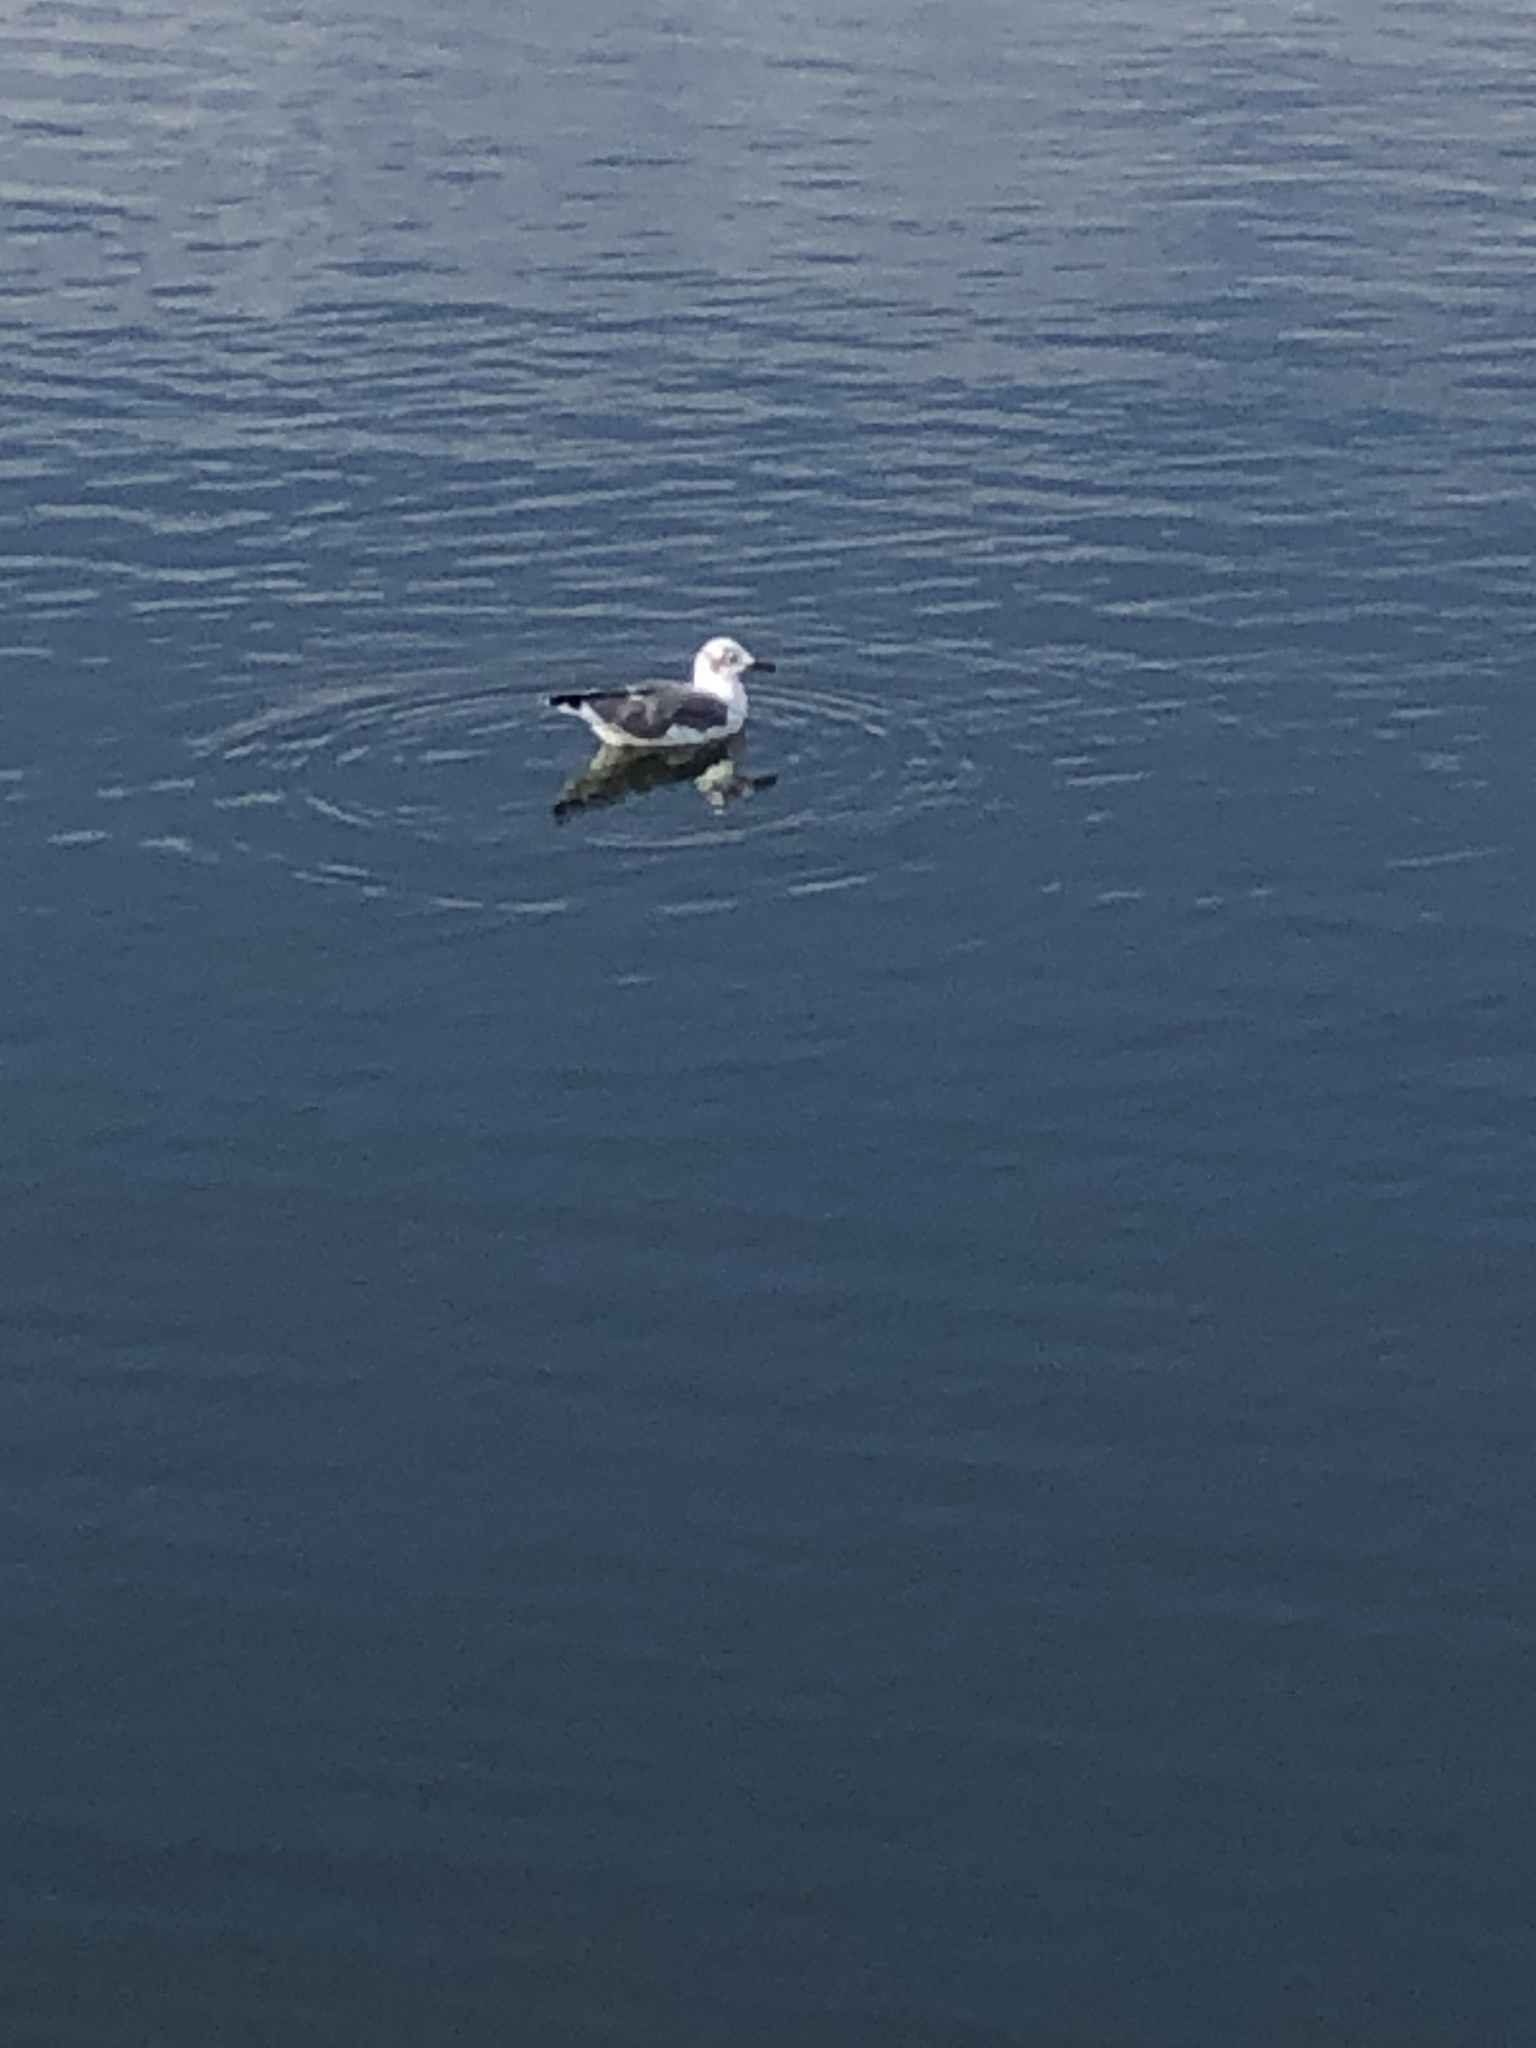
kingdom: Animalia
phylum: Chordata
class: Aves
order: Charadriiformes
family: Laridae
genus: Leucophaeus
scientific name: Leucophaeus atricilla
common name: Laughing gull
